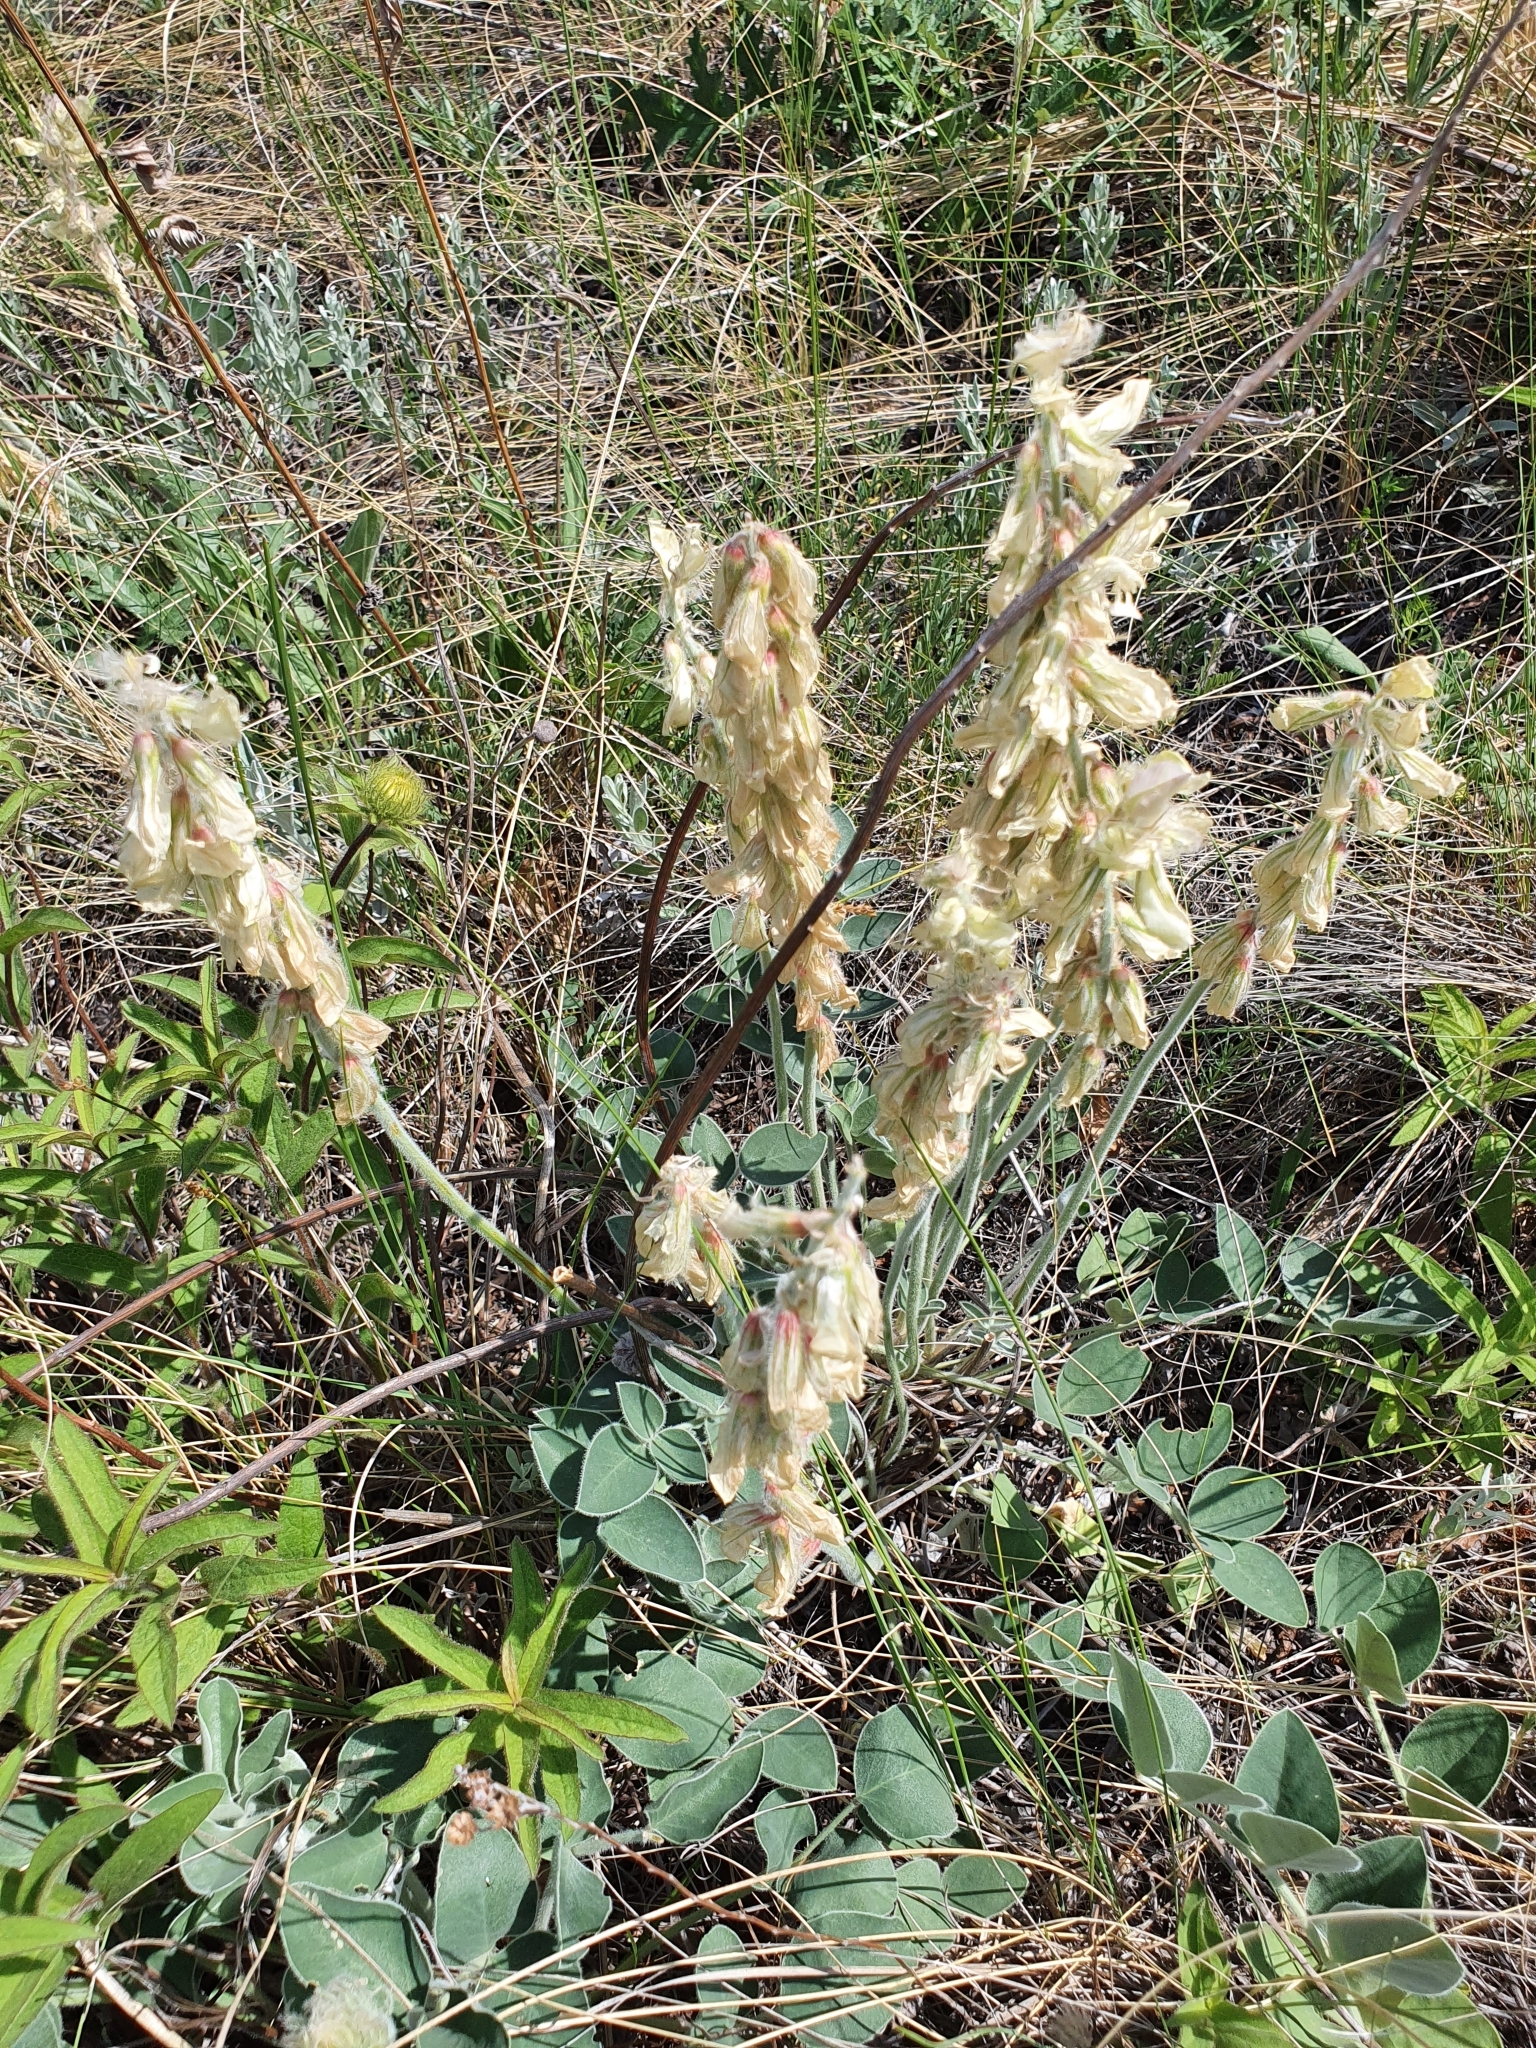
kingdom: Plantae
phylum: Tracheophyta
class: Magnoliopsida
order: Fabales
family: Fabaceae
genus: Hedysarum
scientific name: Hedysarum grandiflorum
